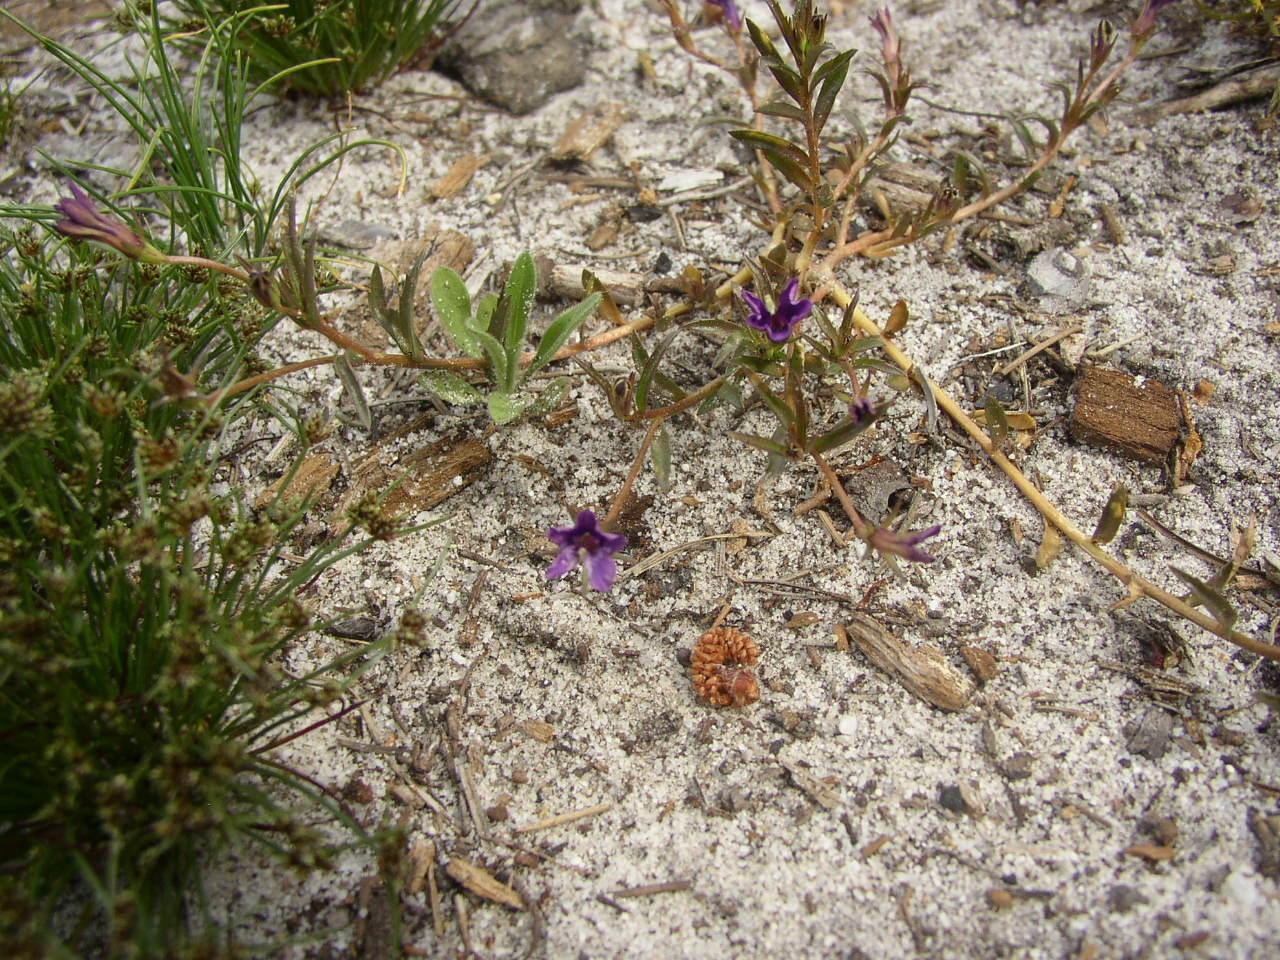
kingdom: Plantae
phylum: Tracheophyta
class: Magnoliopsida
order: Asterales
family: Campanulaceae
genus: Monopsis
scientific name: Monopsis debilis
